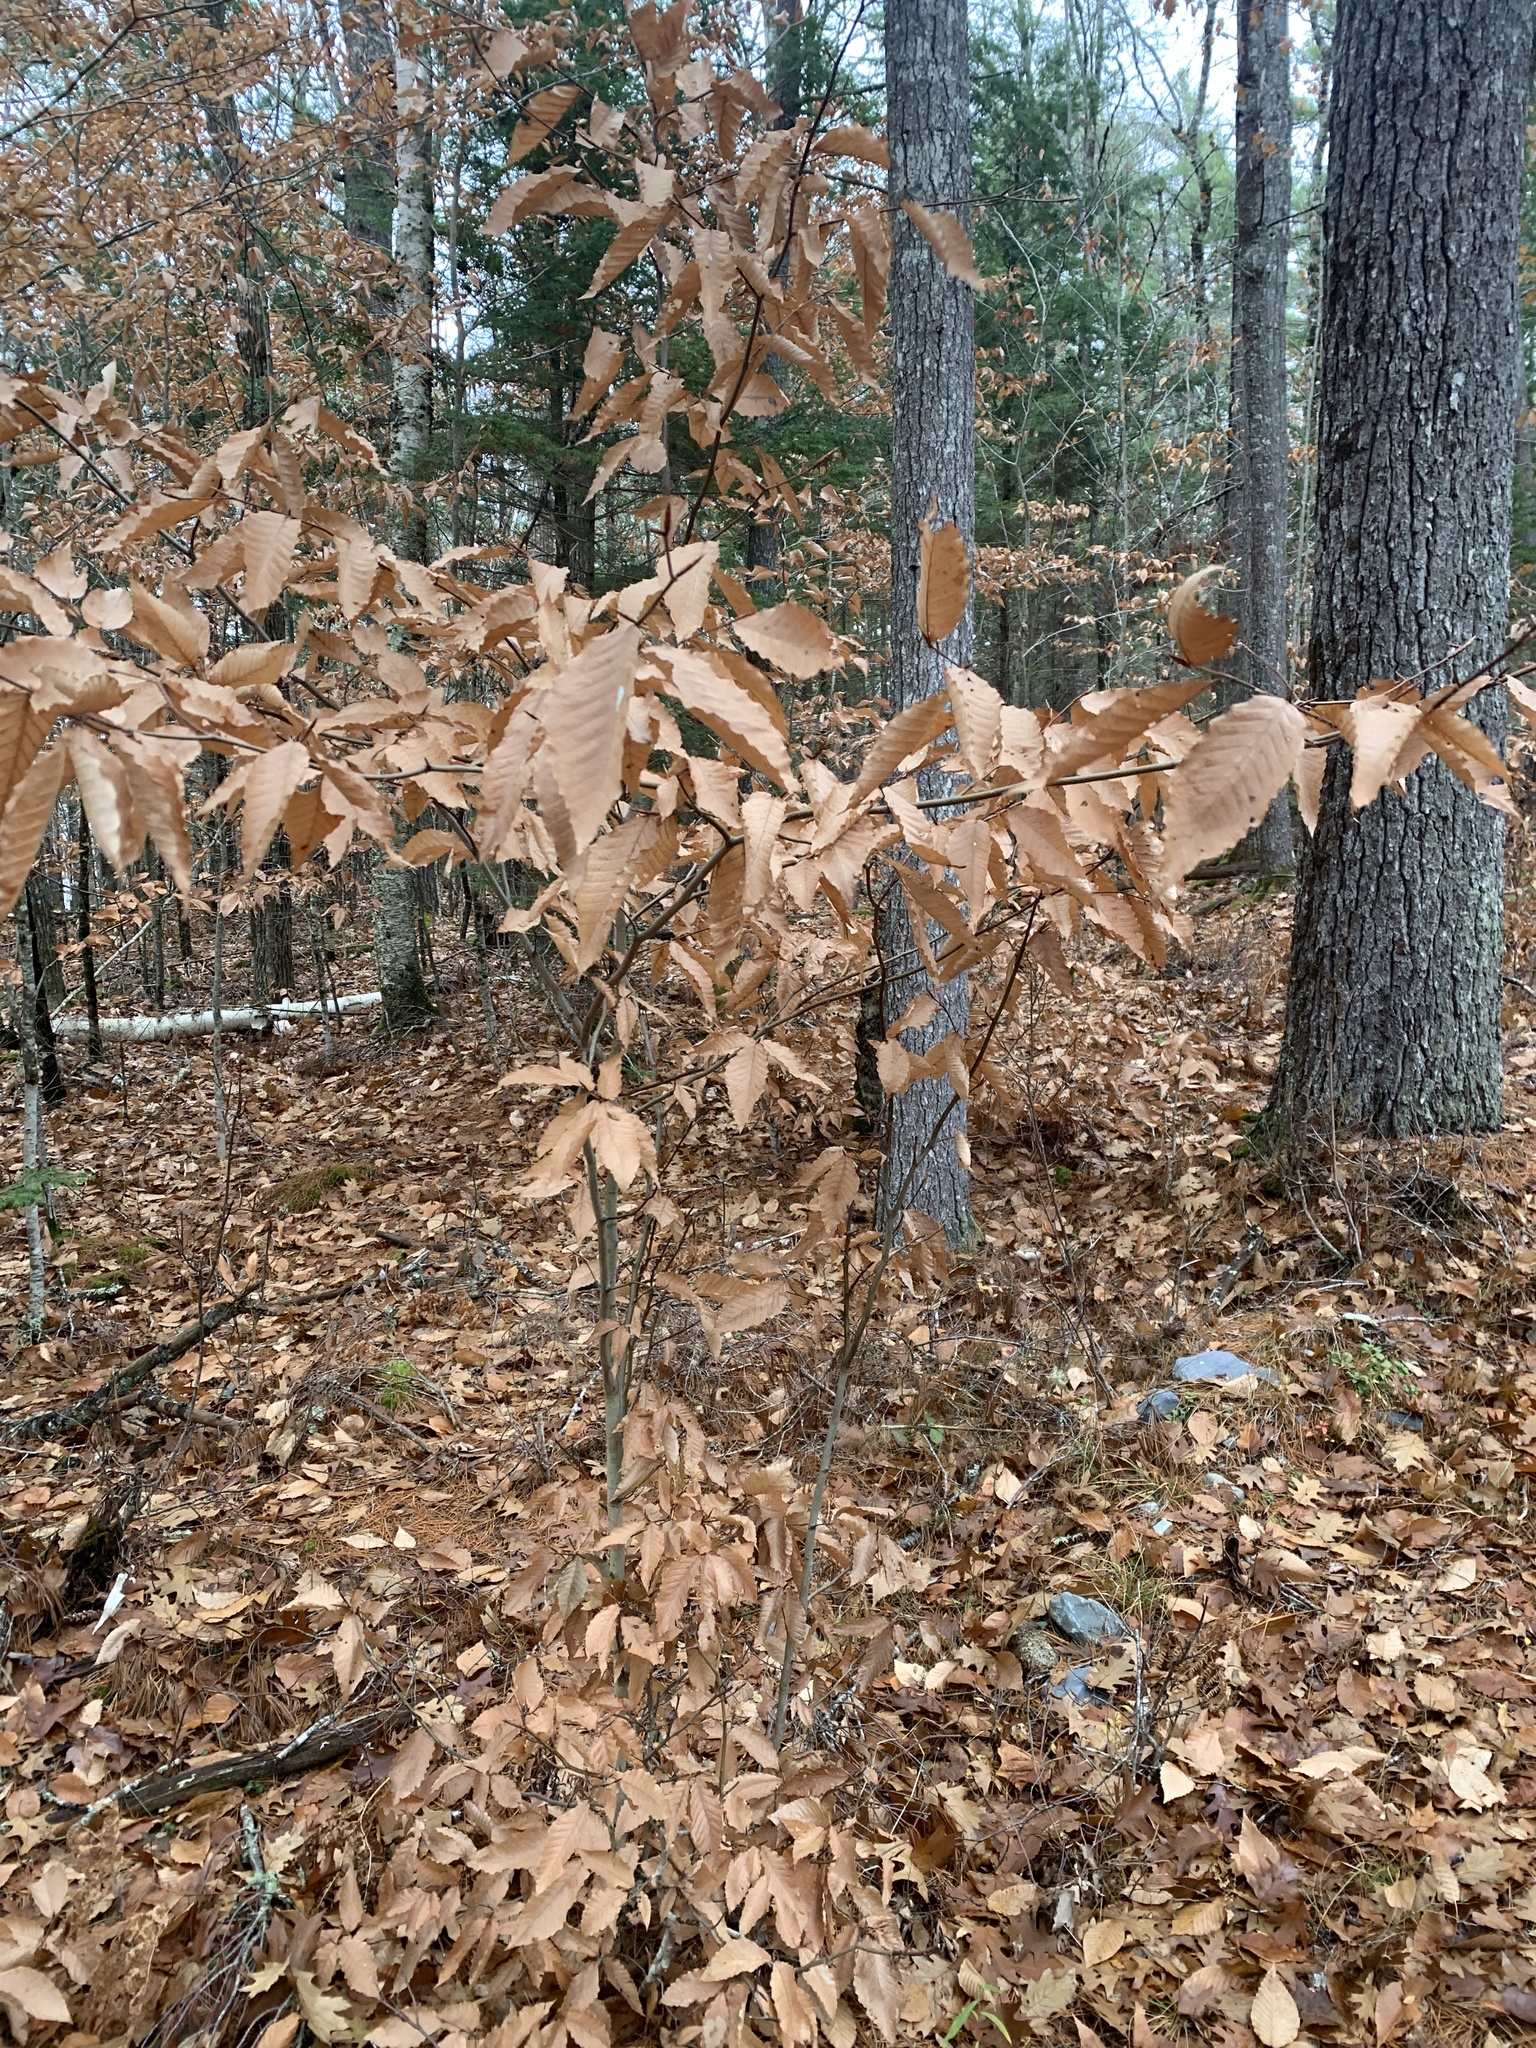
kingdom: Plantae
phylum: Tracheophyta
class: Magnoliopsida
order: Fagales
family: Fagaceae
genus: Fagus
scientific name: Fagus grandifolia
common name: American beech
